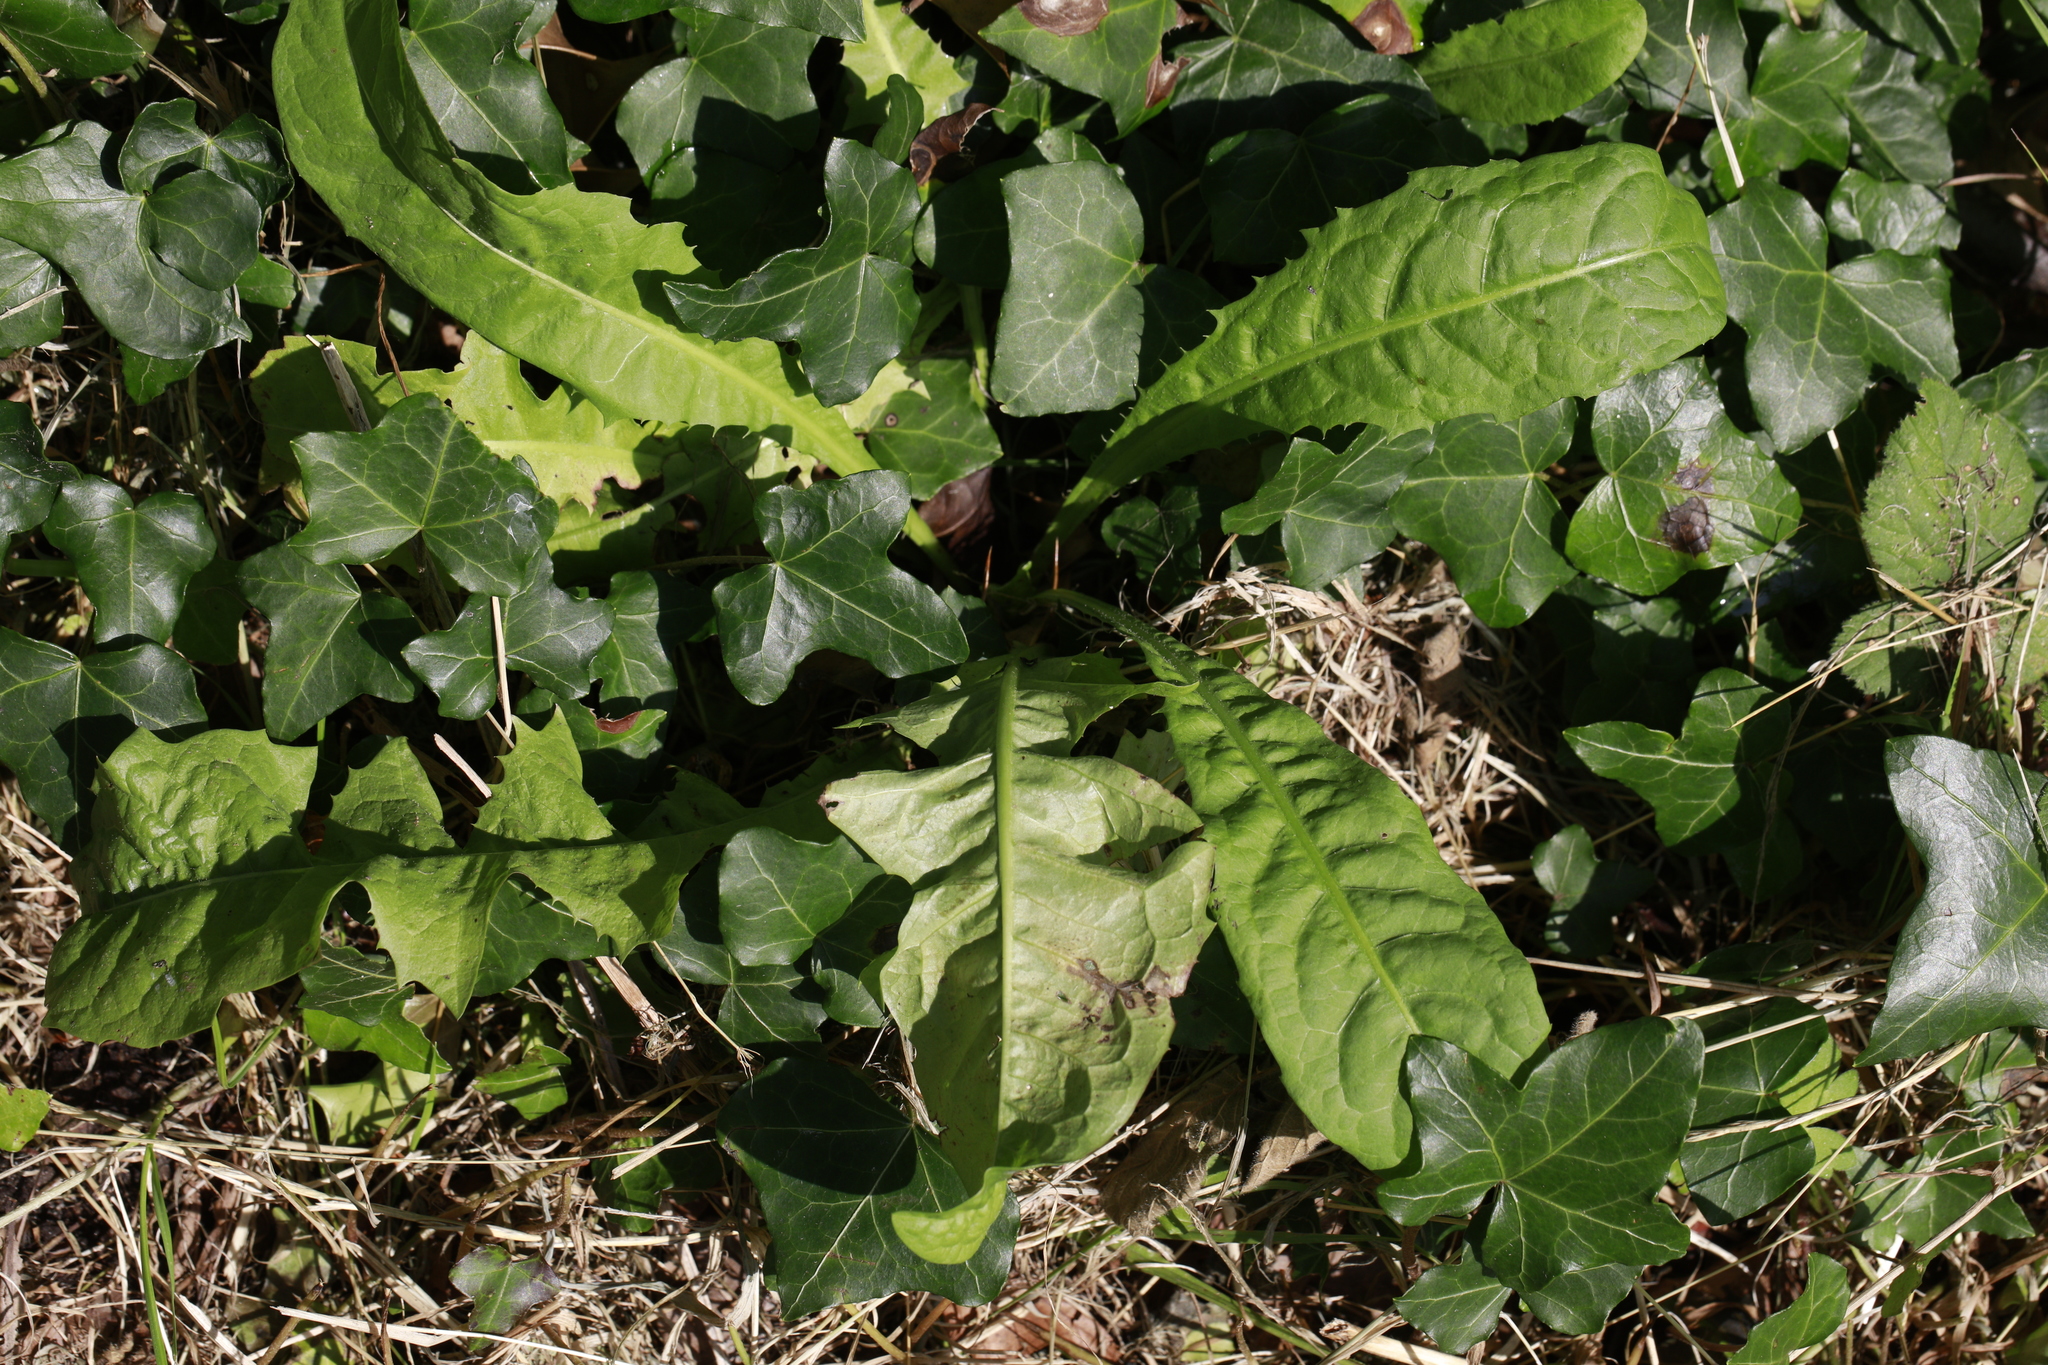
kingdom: Plantae
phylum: Tracheophyta
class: Magnoliopsida
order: Asterales
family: Asteraceae
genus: Taraxacum
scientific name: Taraxacum officinale
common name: Common dandelion
